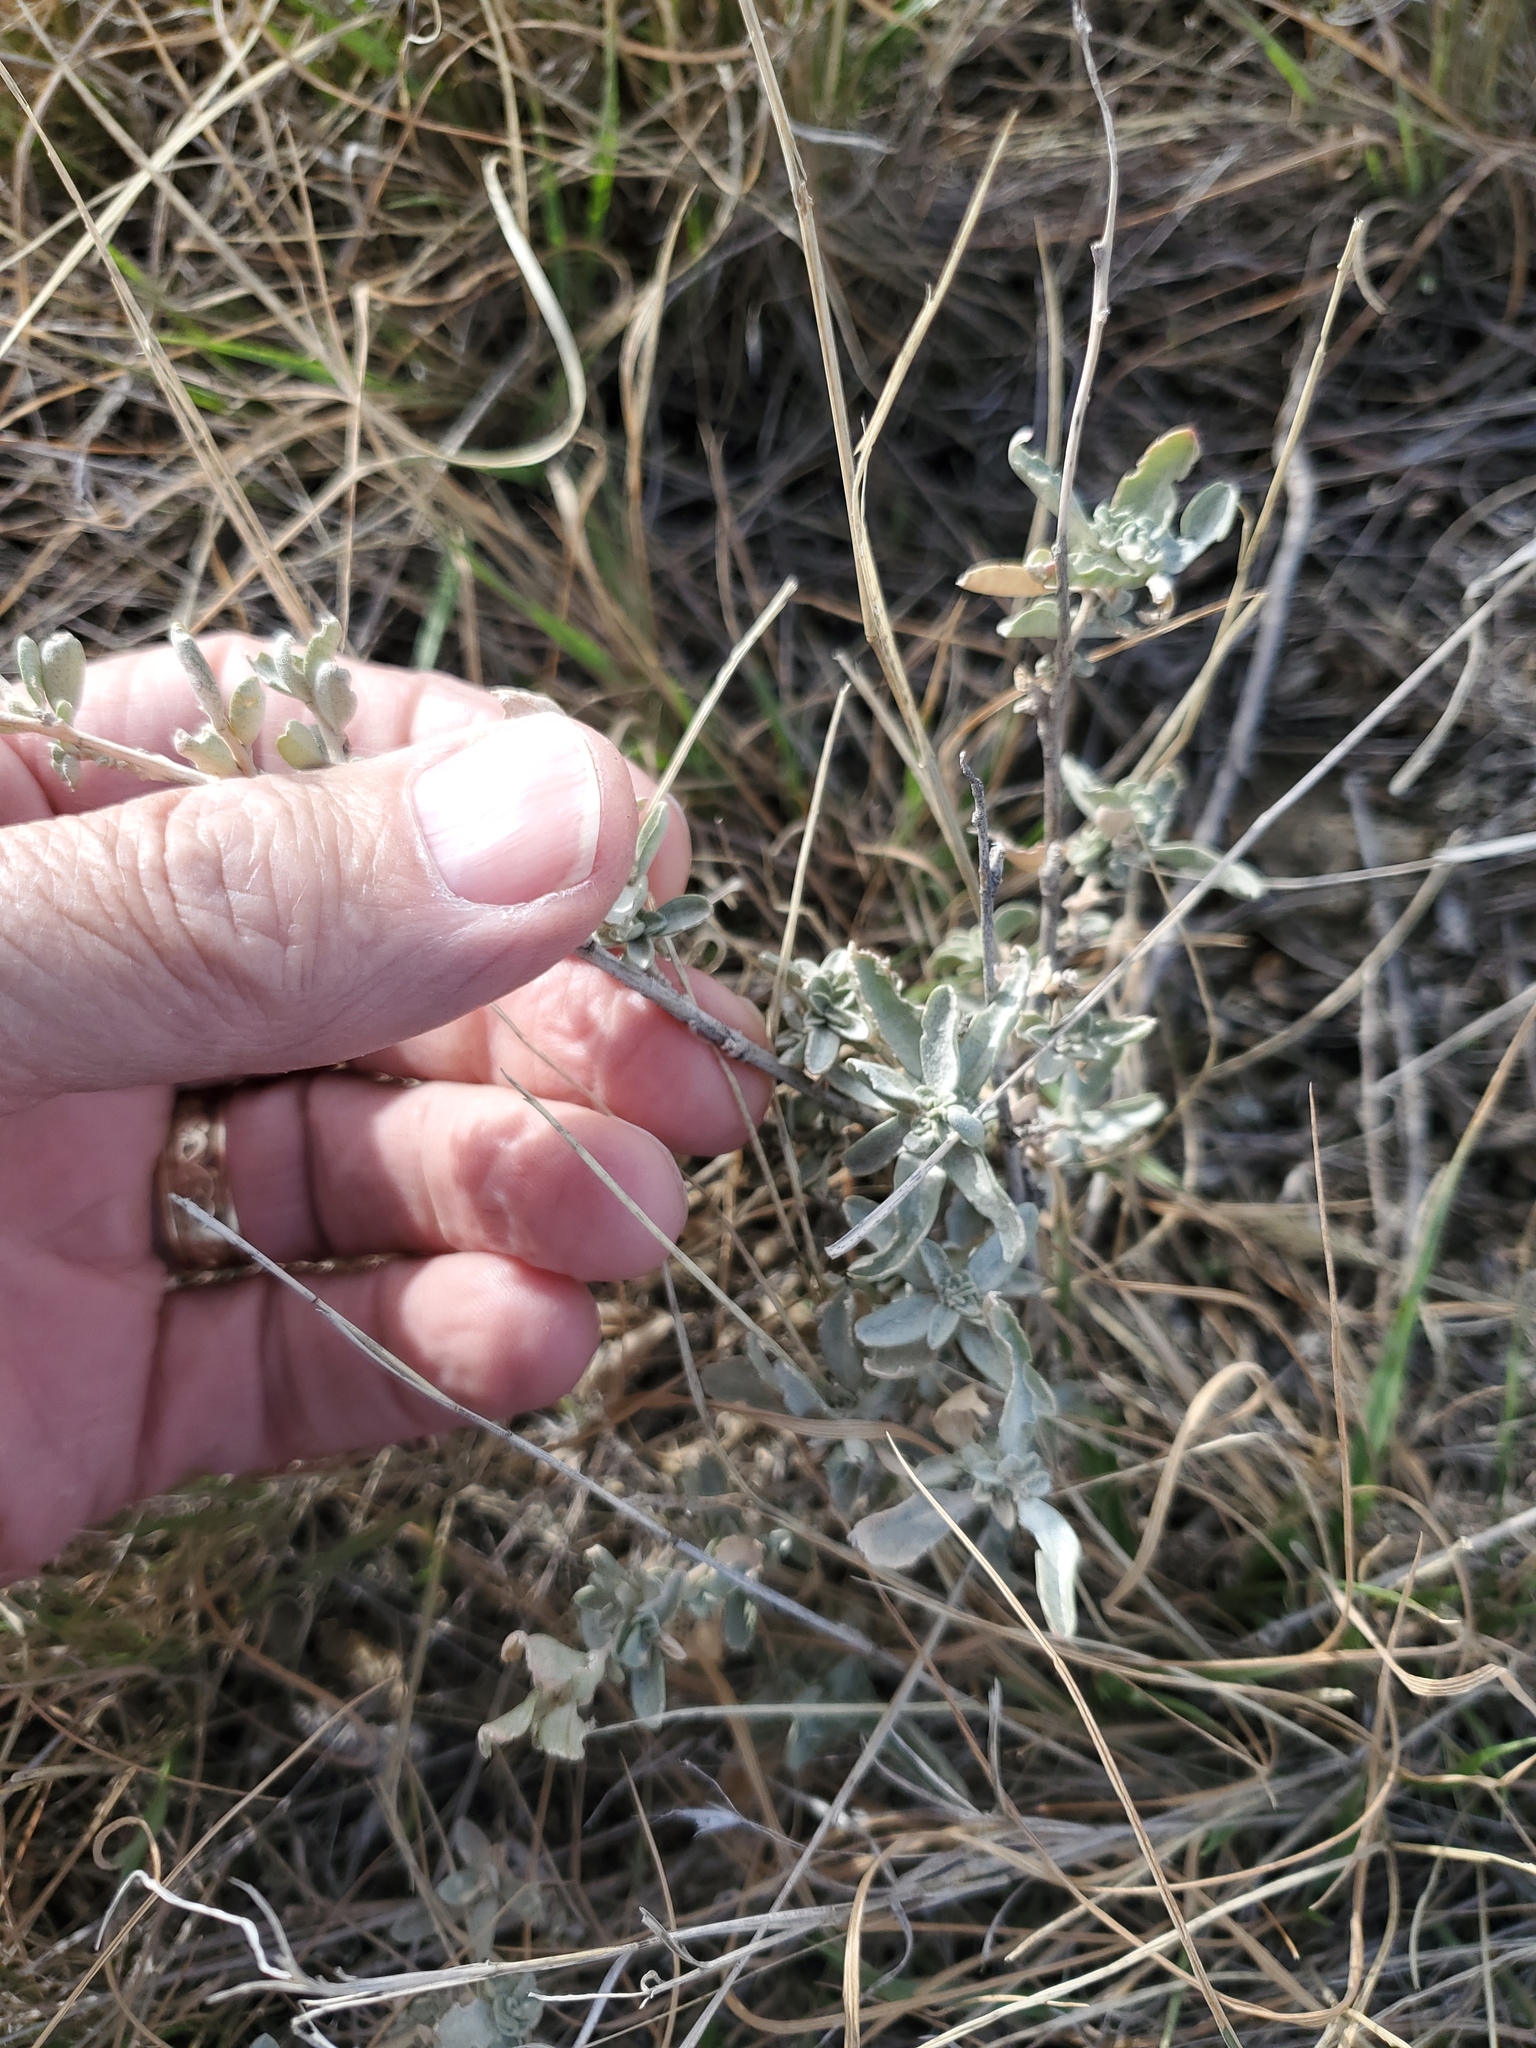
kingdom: Plantae
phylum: Tracheophyta
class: Magnoliopsida
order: Asterales
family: Asteraceae
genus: Artemisia
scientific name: Artemisia cana
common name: Silver sagebrush
